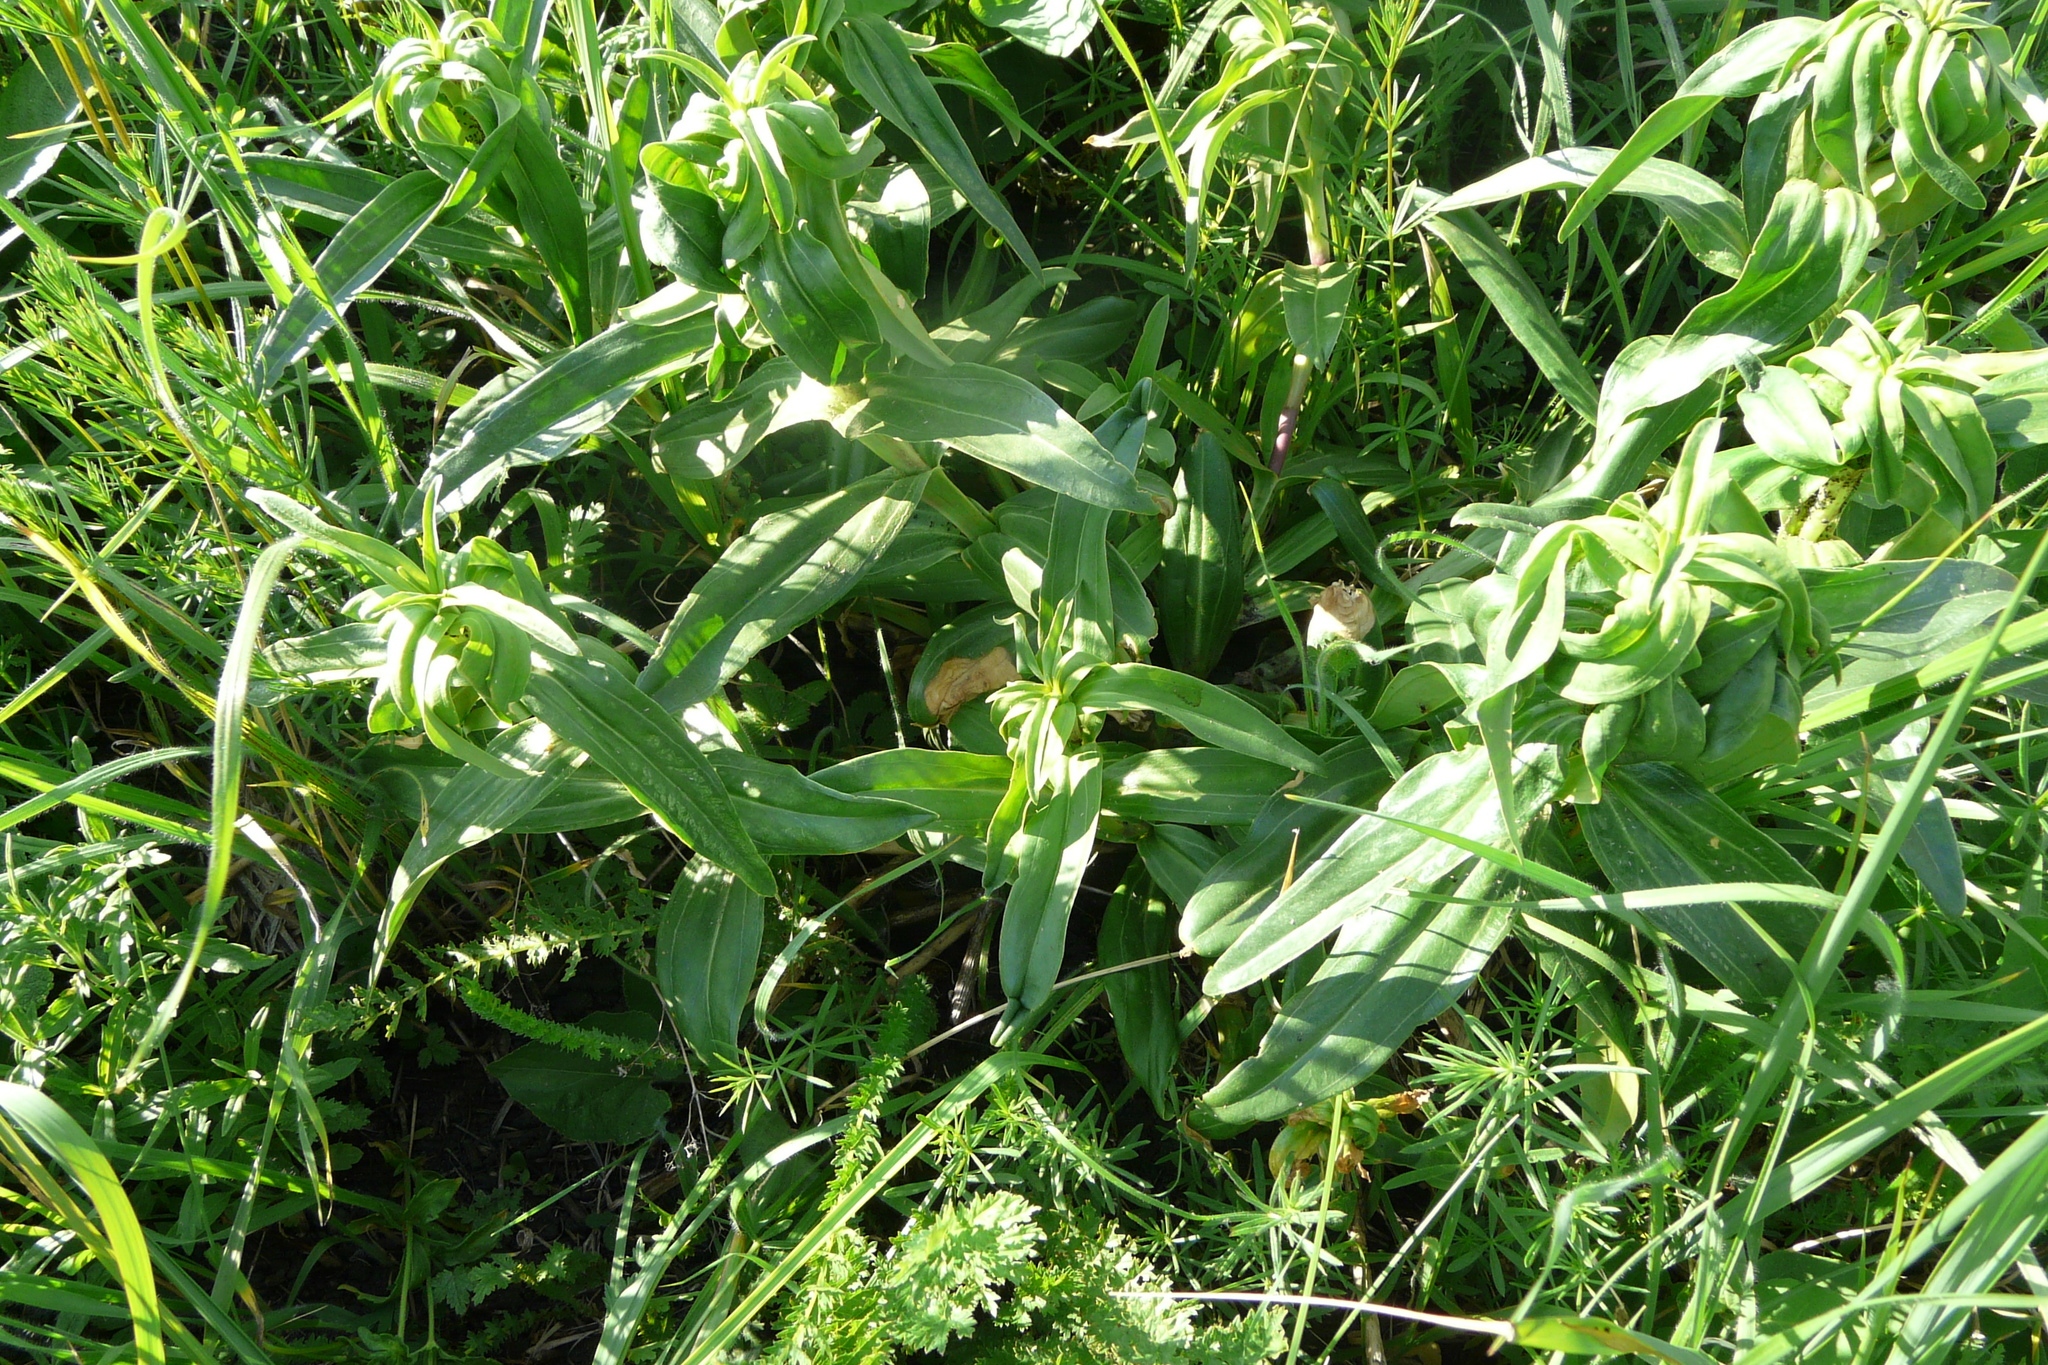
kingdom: Plantae
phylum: Tracheophyta
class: Magnoliopsida
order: Gentianales
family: Gentianaceae
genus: Gentiana
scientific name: Gentiana cruciata
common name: Cross gentian
